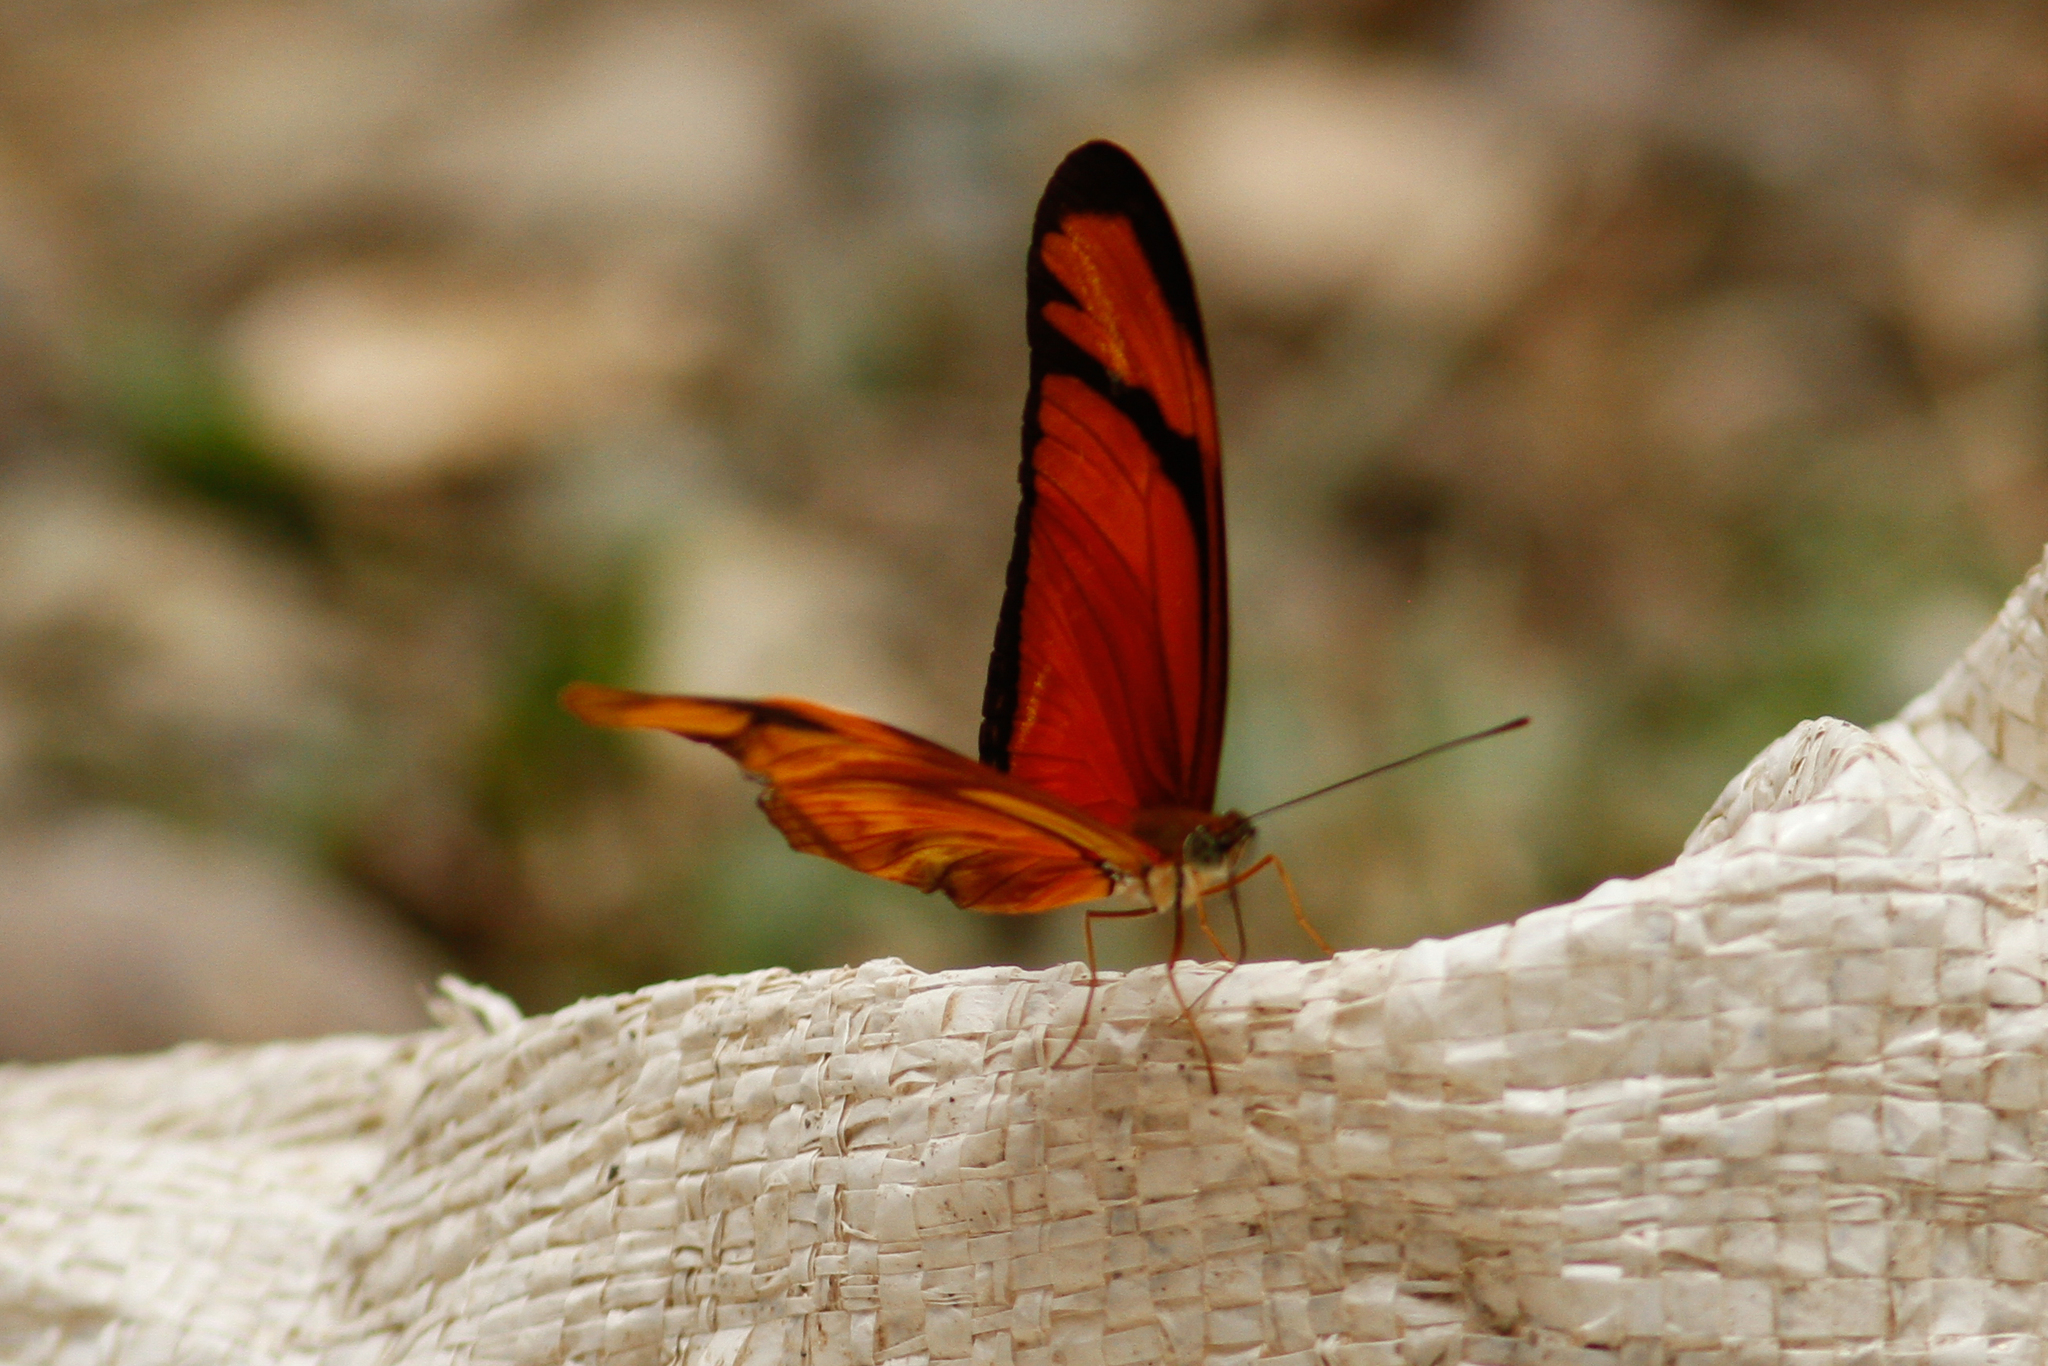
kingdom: Animalia
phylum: Arthropoda
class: Insecta
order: Lepidoptera
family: Nymphalidae
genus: Dryas
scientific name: Dryas iulia
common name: Flambeau
